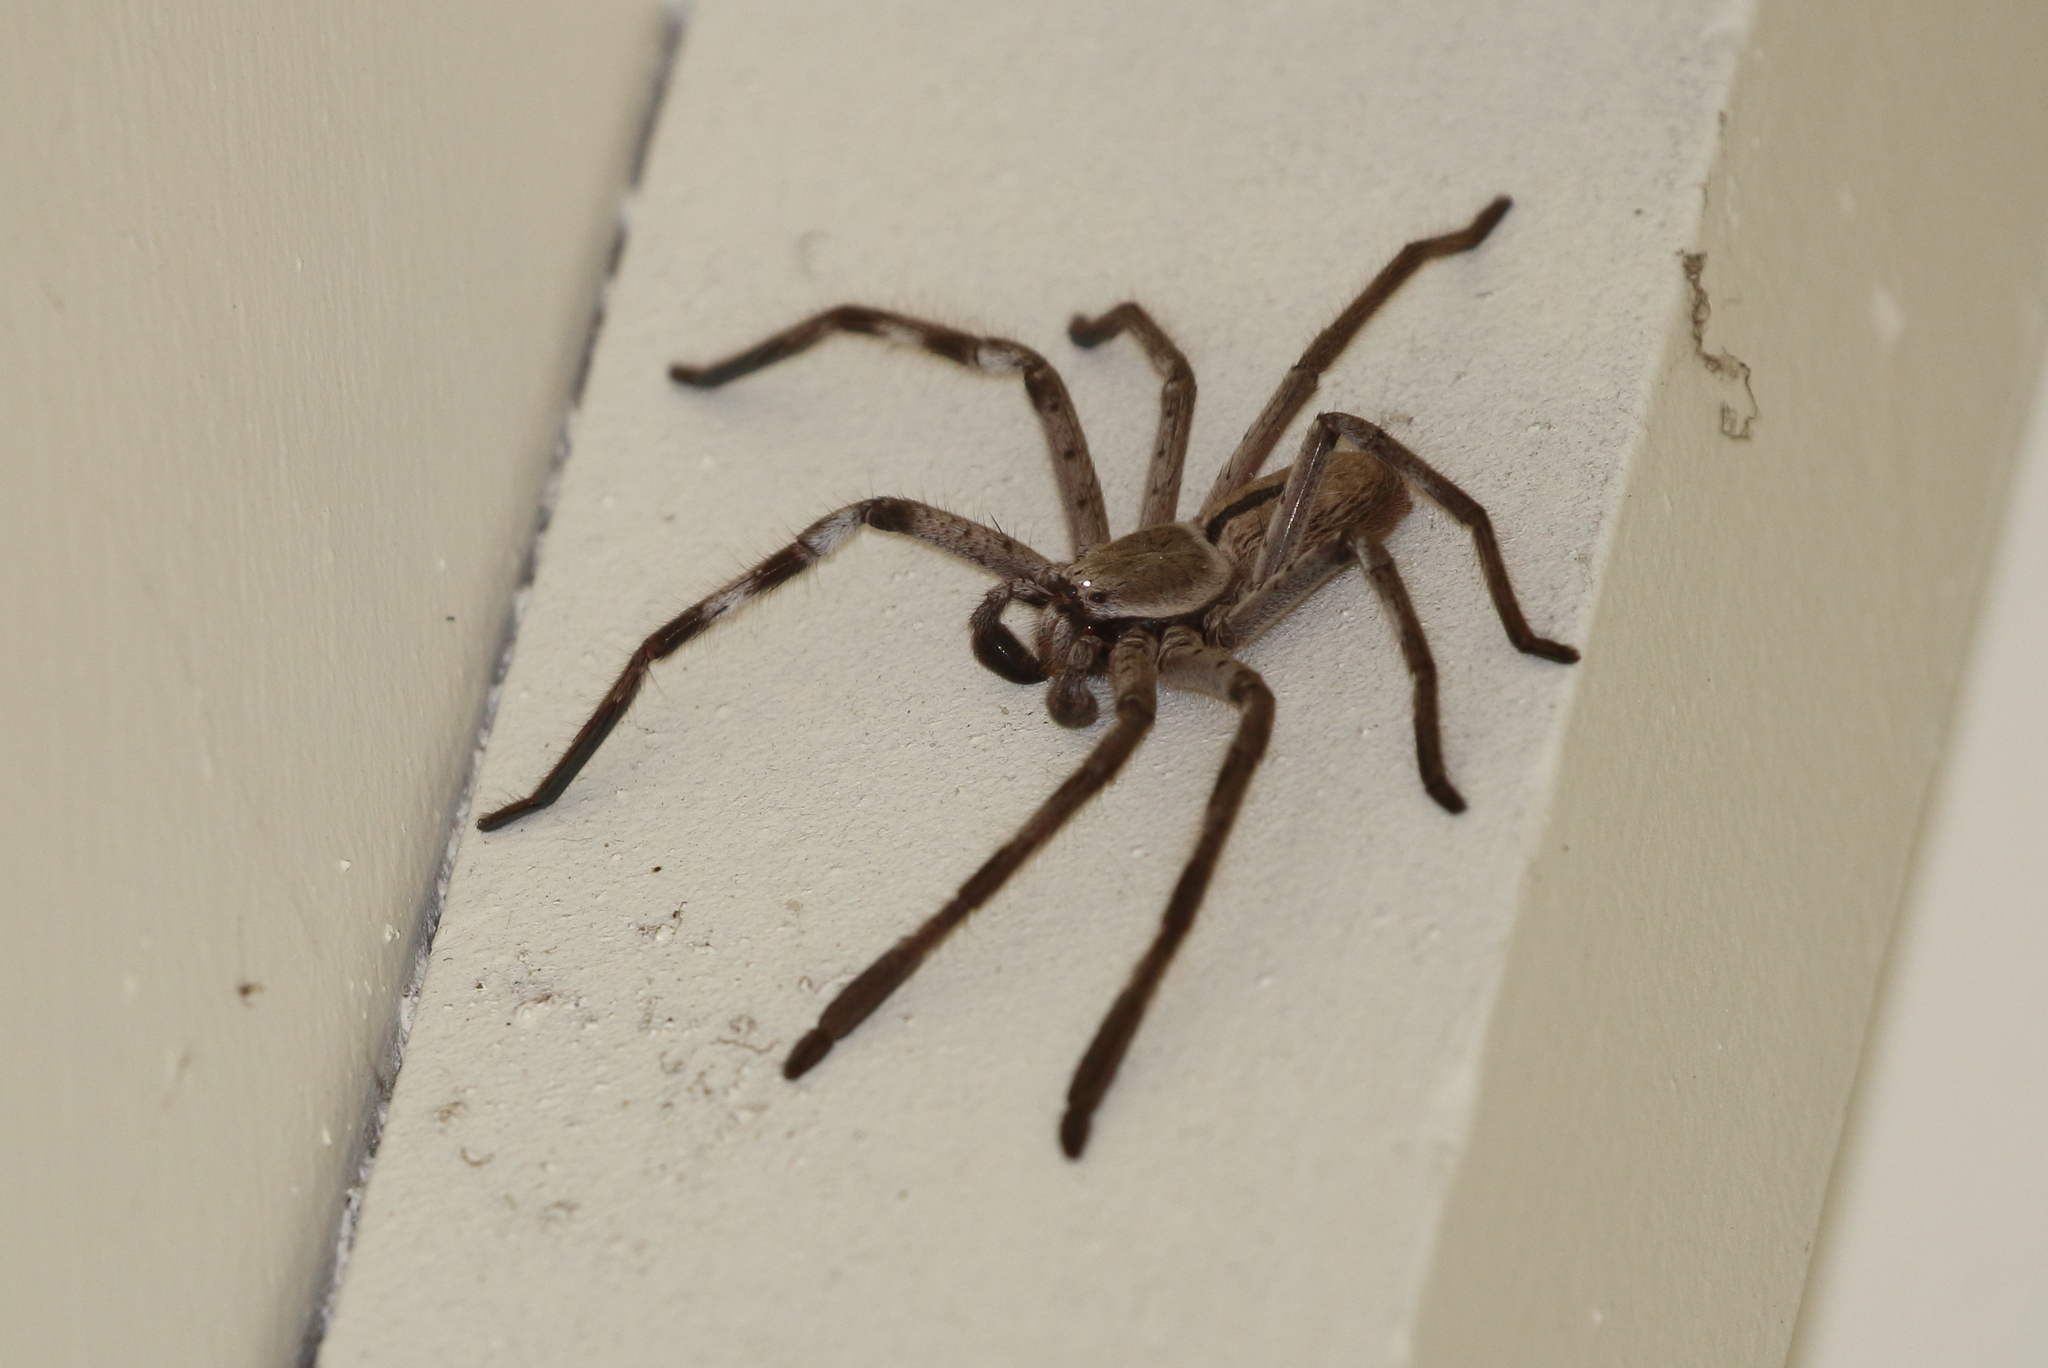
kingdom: Animalia
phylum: Arthropoda
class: Arachnida
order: Araneae
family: Sparassidae
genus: Holconia
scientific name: Holconia immanis
